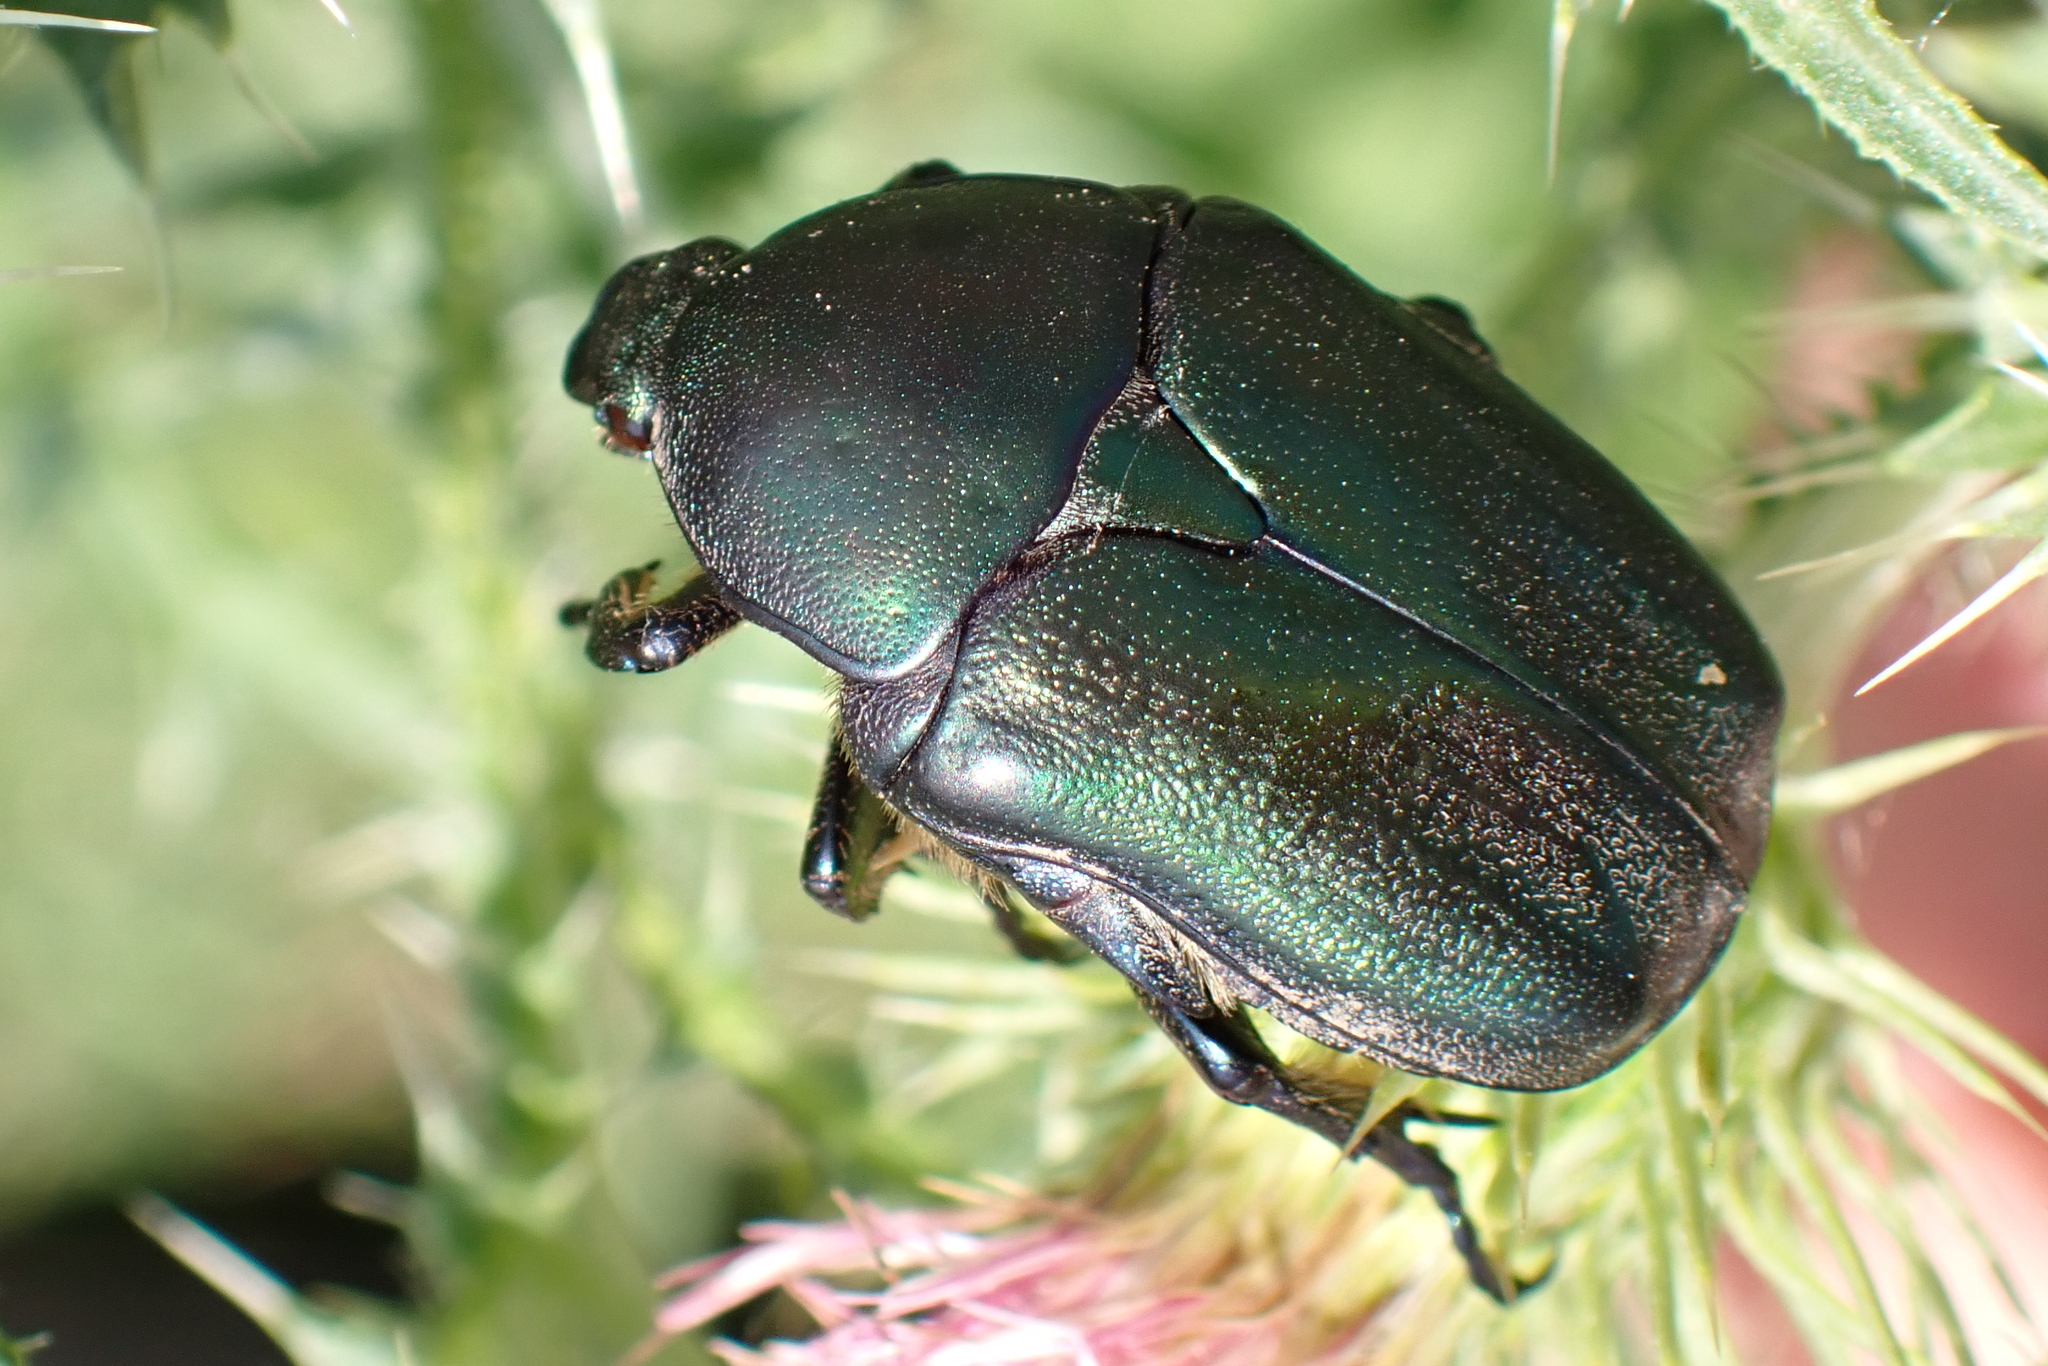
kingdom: Animalia
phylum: Arthropoda
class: Insecta
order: Coleoptera
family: Scarabaeidae
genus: Protaetia
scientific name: Protaetia angustata
